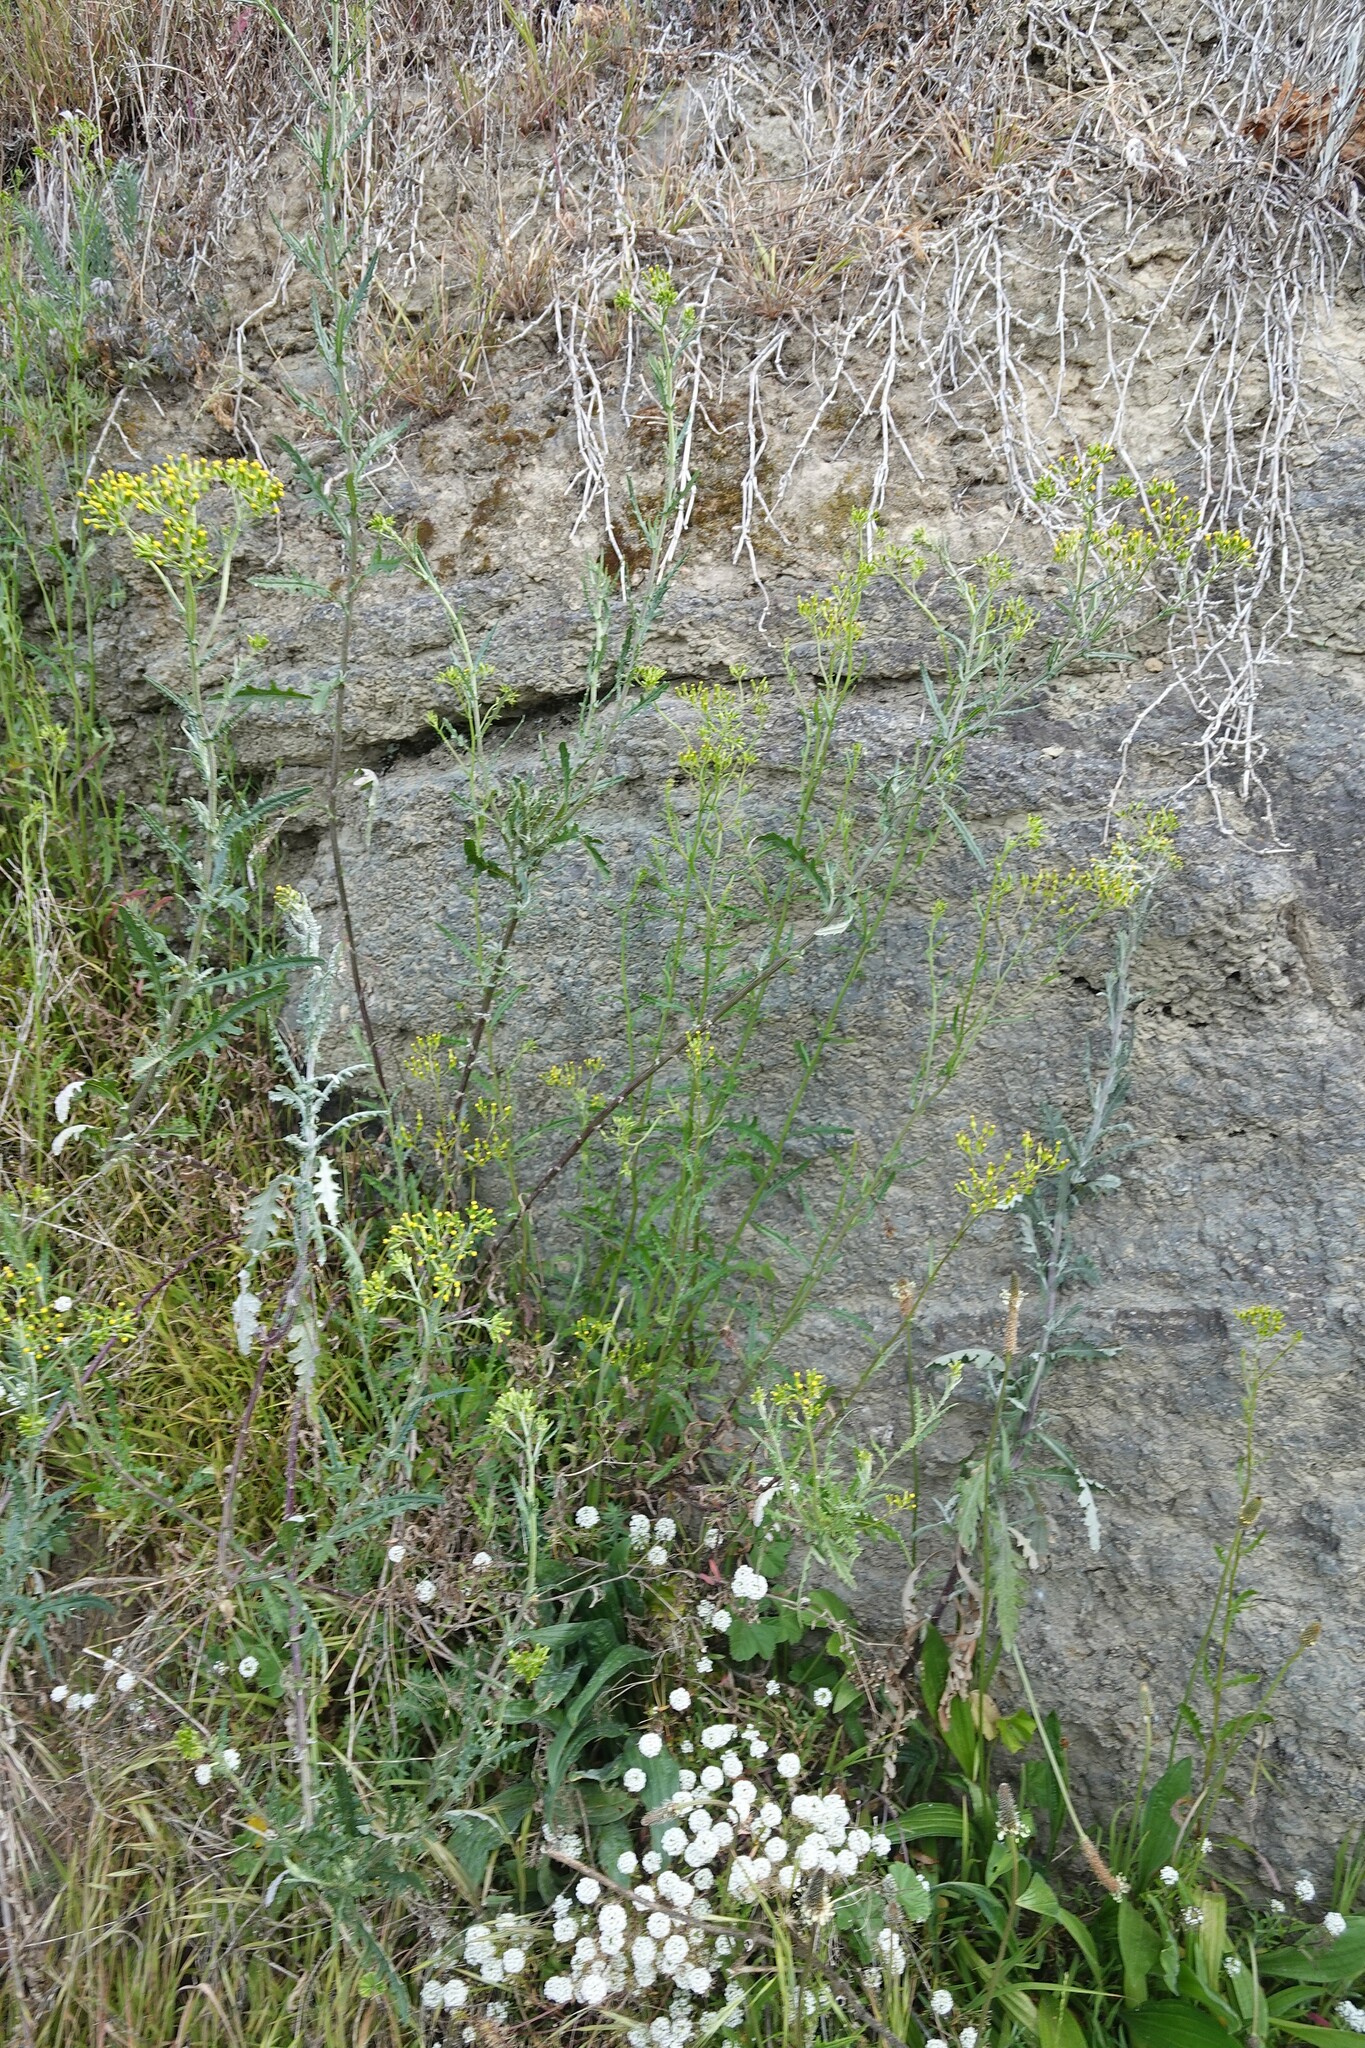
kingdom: Plantae
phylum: Tracheophyta
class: Magnoliopsida
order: Asterales
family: Asteraceae
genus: Senecio
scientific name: Senecio glomeratus
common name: Cutleaf burnweed
